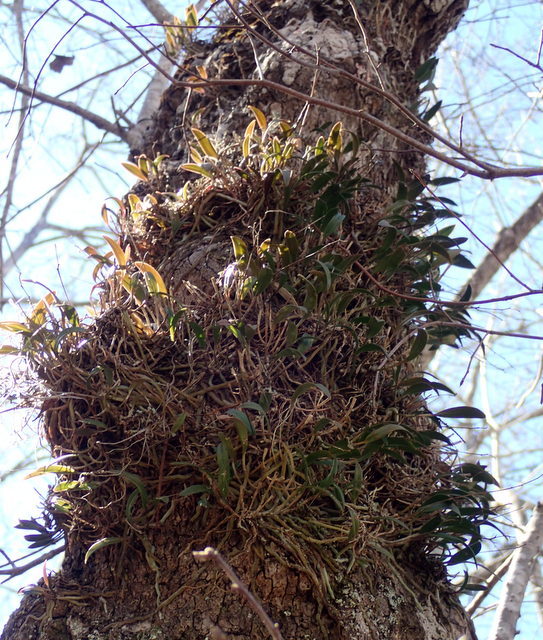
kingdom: Plantae
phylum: Tracheophyta
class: Liliopsida
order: Asparagales
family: Orchidaceae
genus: Epidendrum
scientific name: Epidendrum conopseum
